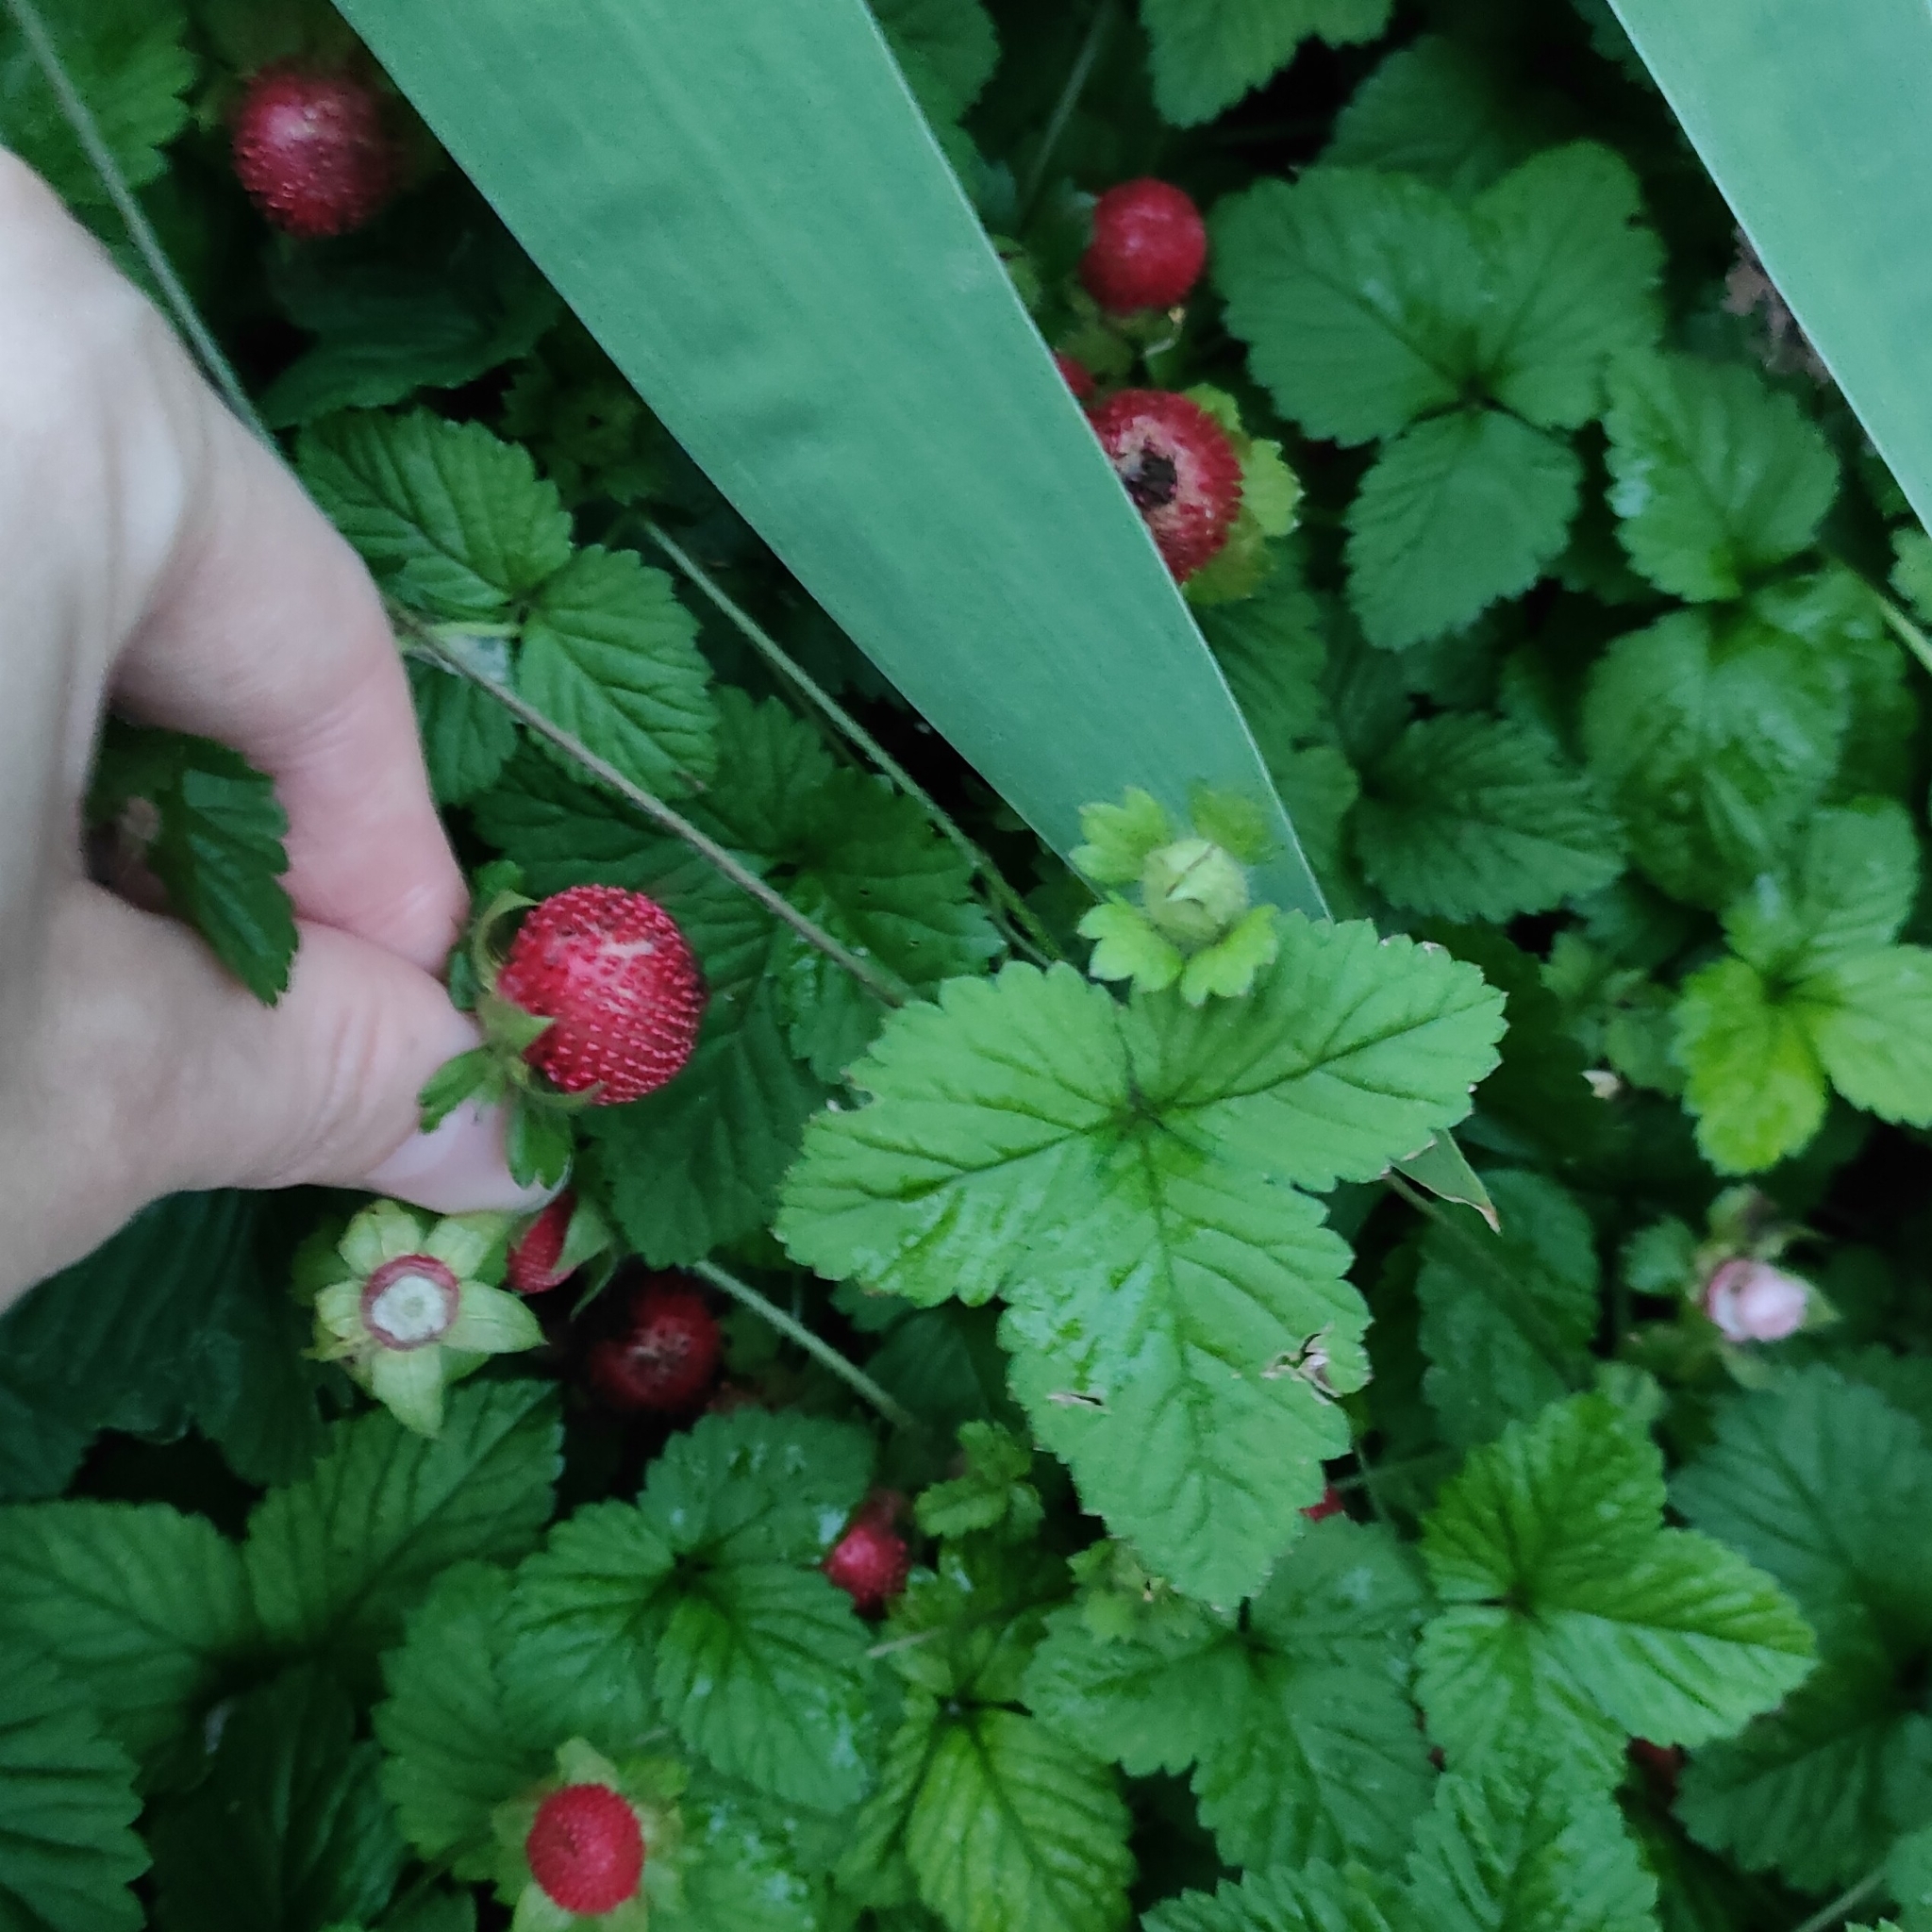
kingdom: Plantae
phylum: Tracheophyta
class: Magnoliopsida
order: Rosales
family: Rosaceae
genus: Potentilla
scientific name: Potentilla indica
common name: Yellow-flowered strawberry
